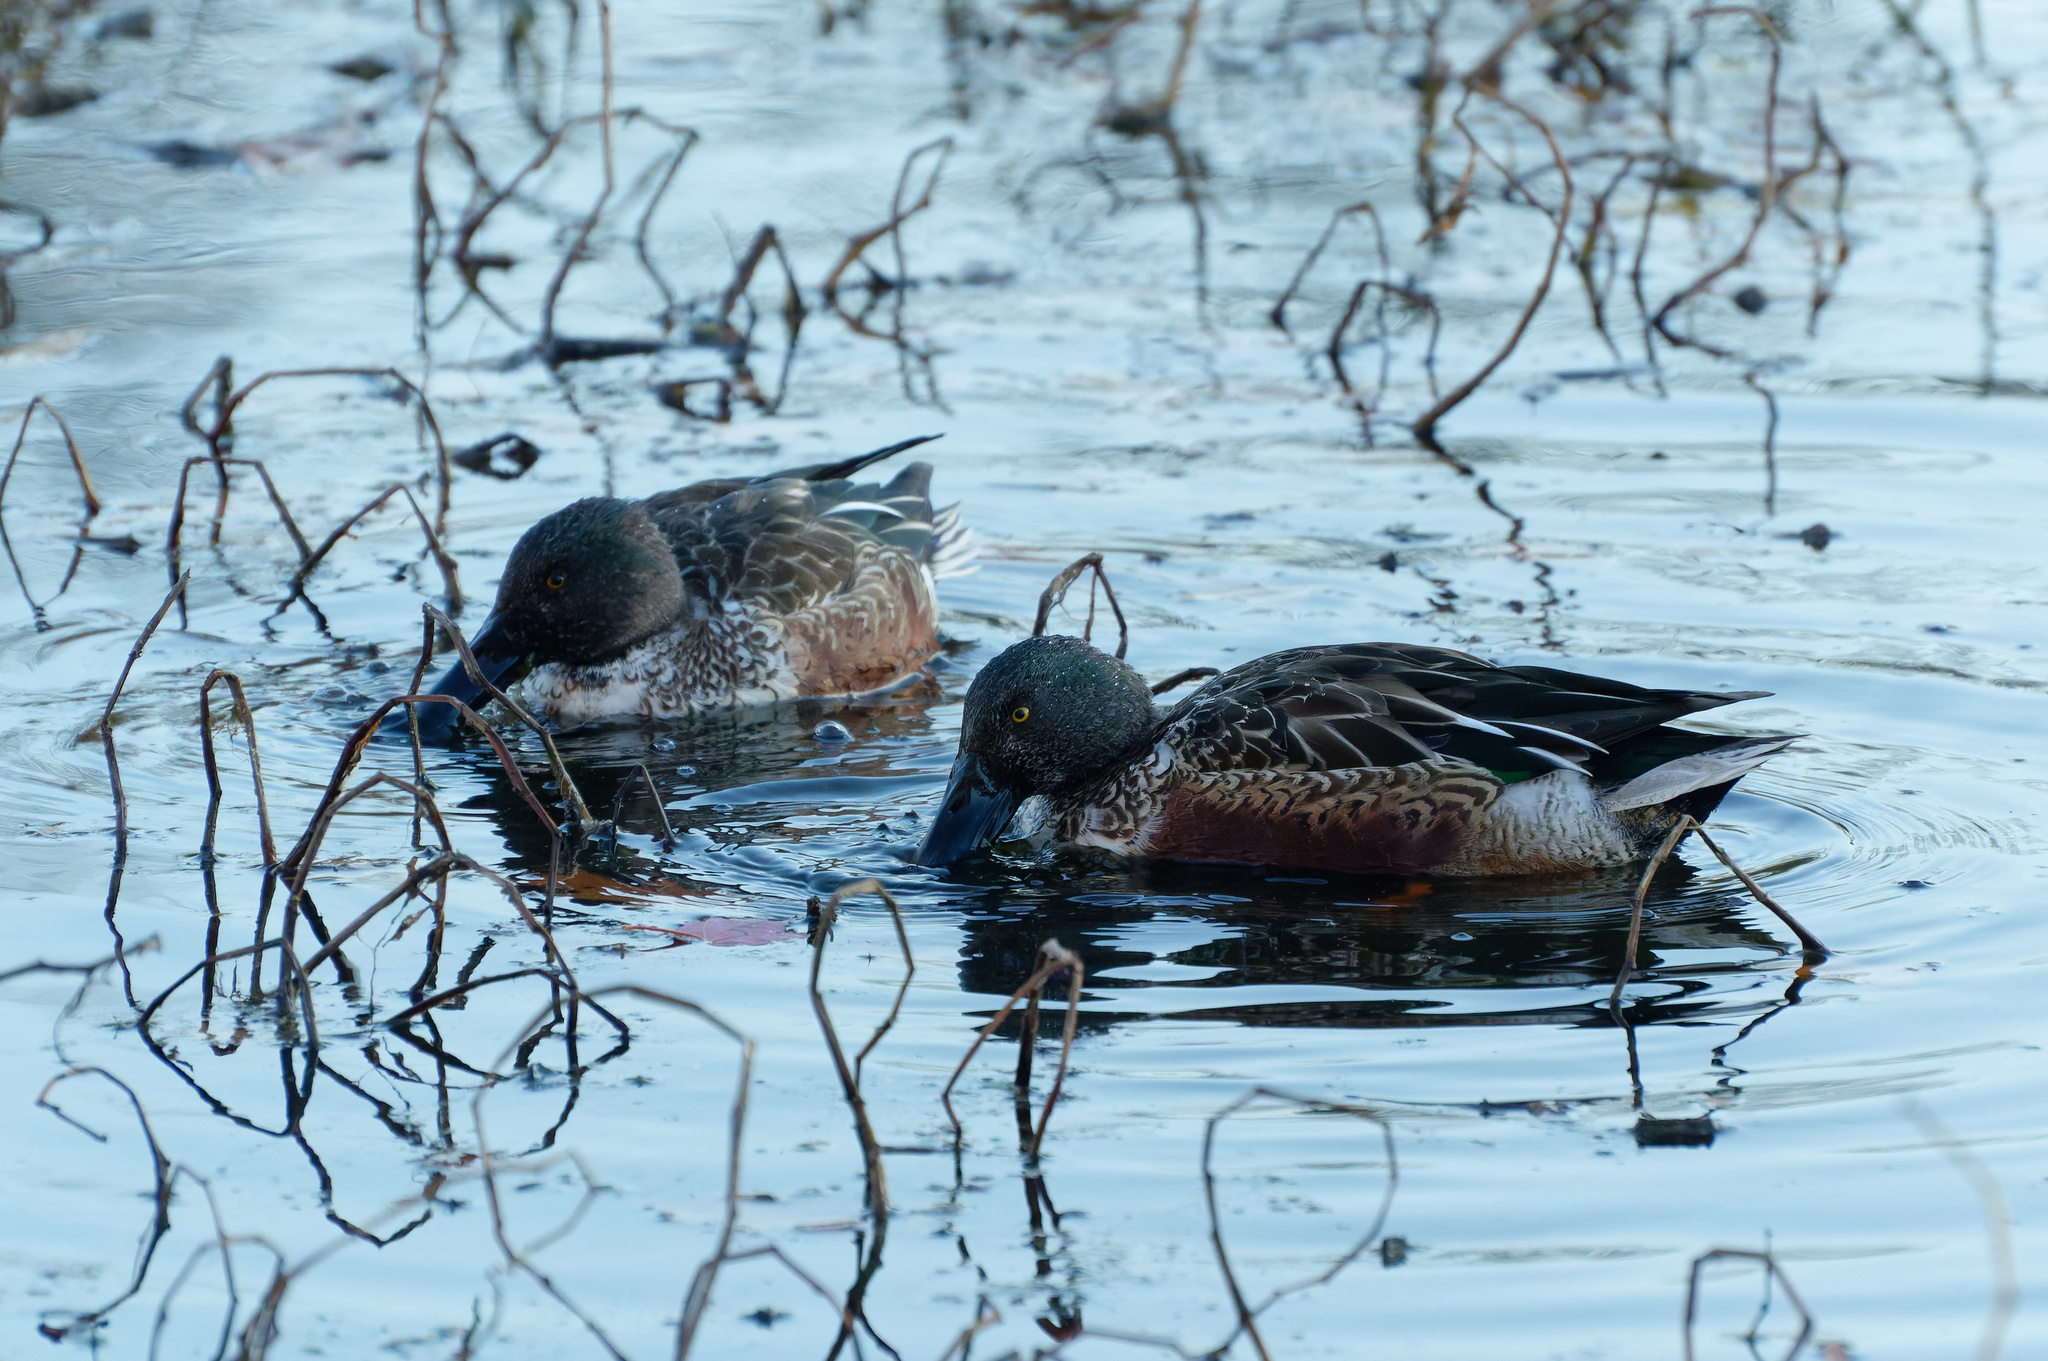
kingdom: Animalia
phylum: Chordata
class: Aves
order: Anseriformes
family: Anatidae
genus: Spatula
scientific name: Spatula clypeata
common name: Northern shoveler
